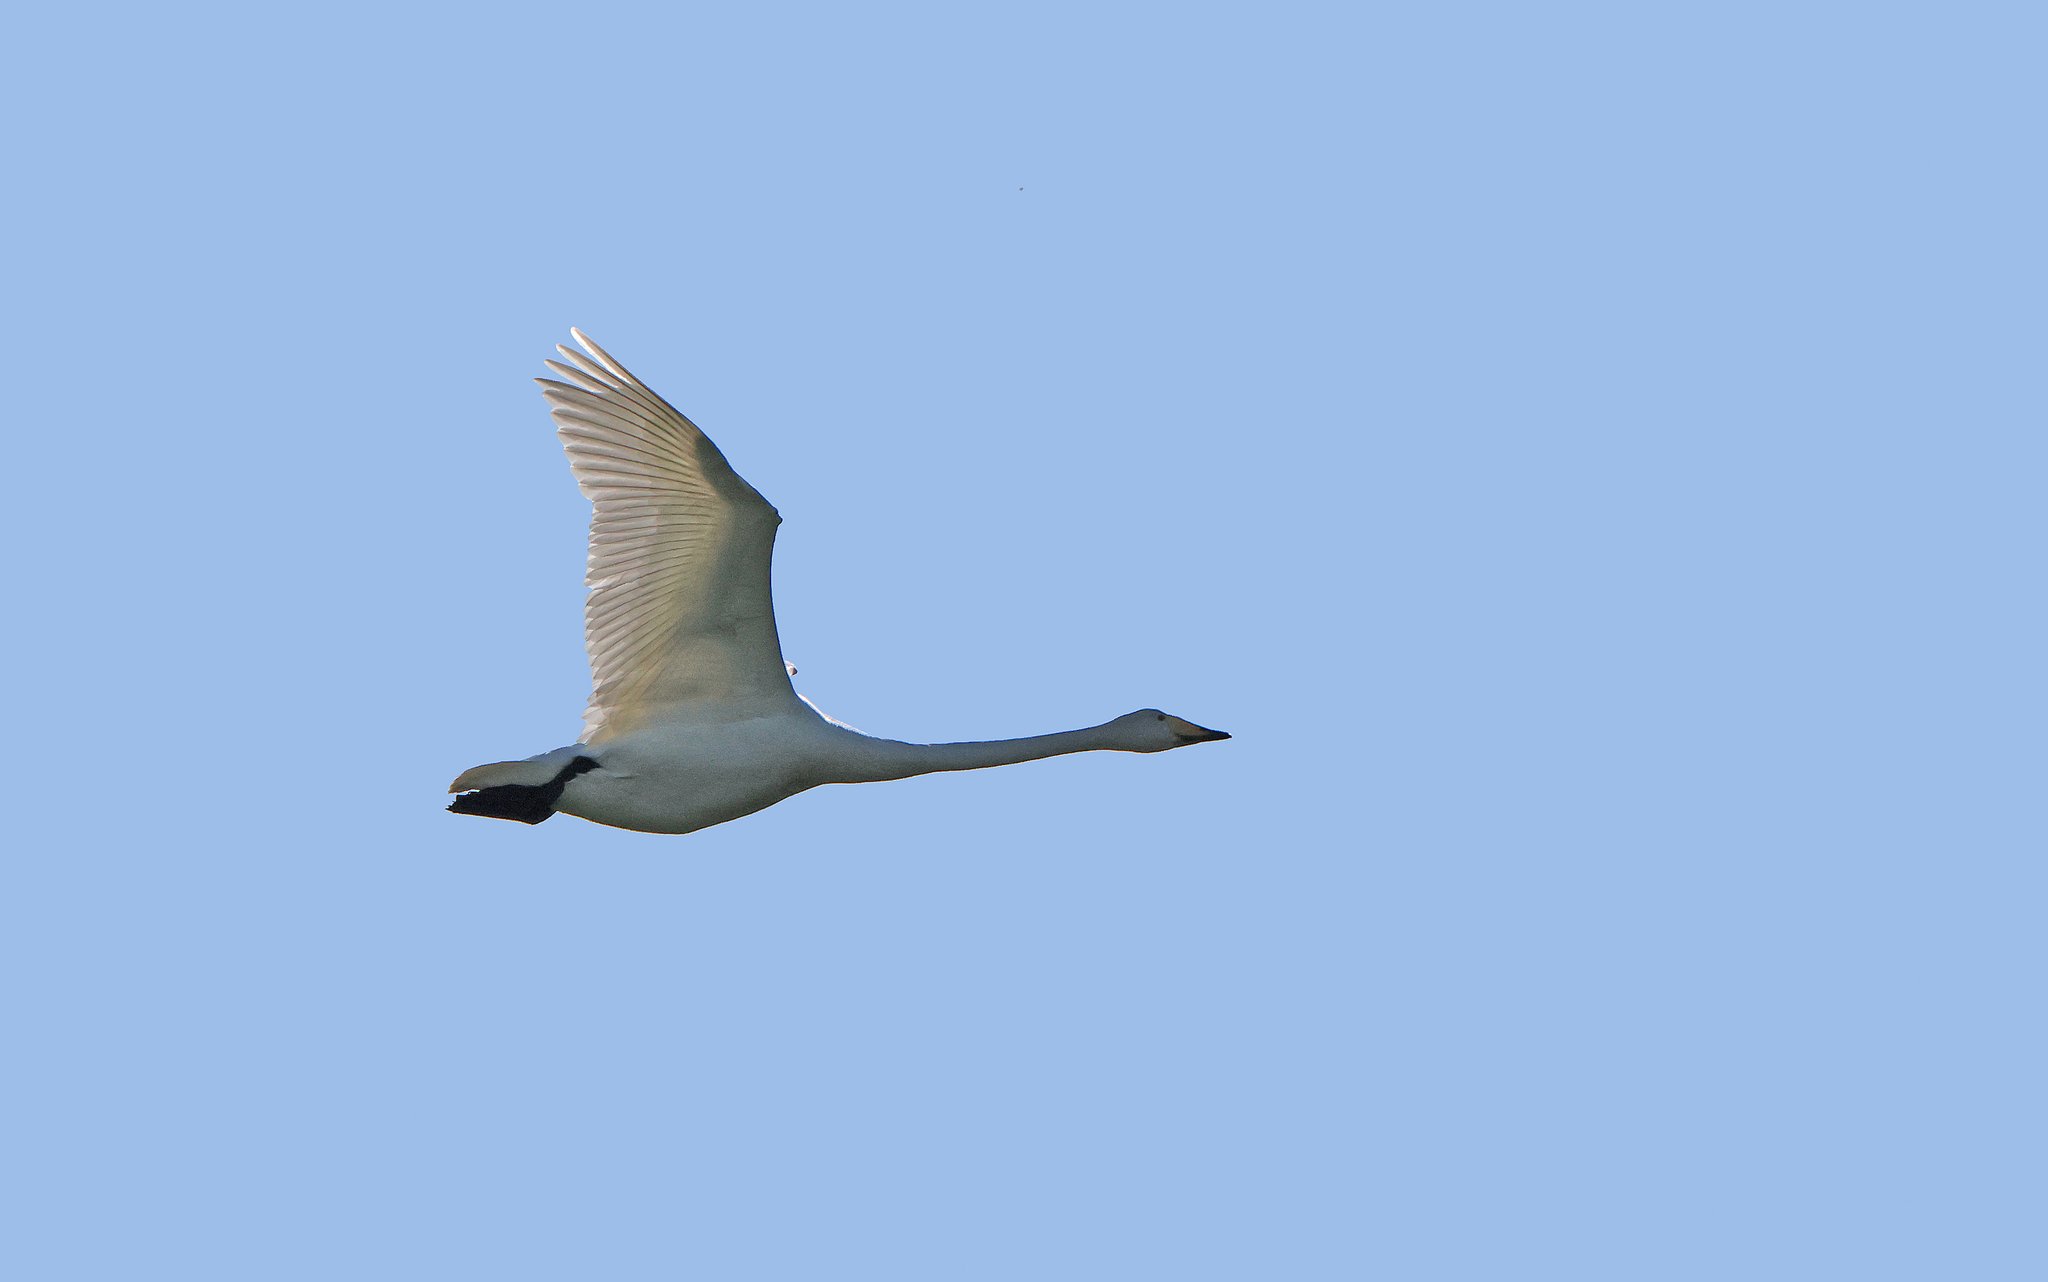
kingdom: Animalia
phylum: Chordata
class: Aves
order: Anseriformes
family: Anatidae
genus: Cygnus
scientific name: Cygnus cygnus
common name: Whooper swan
